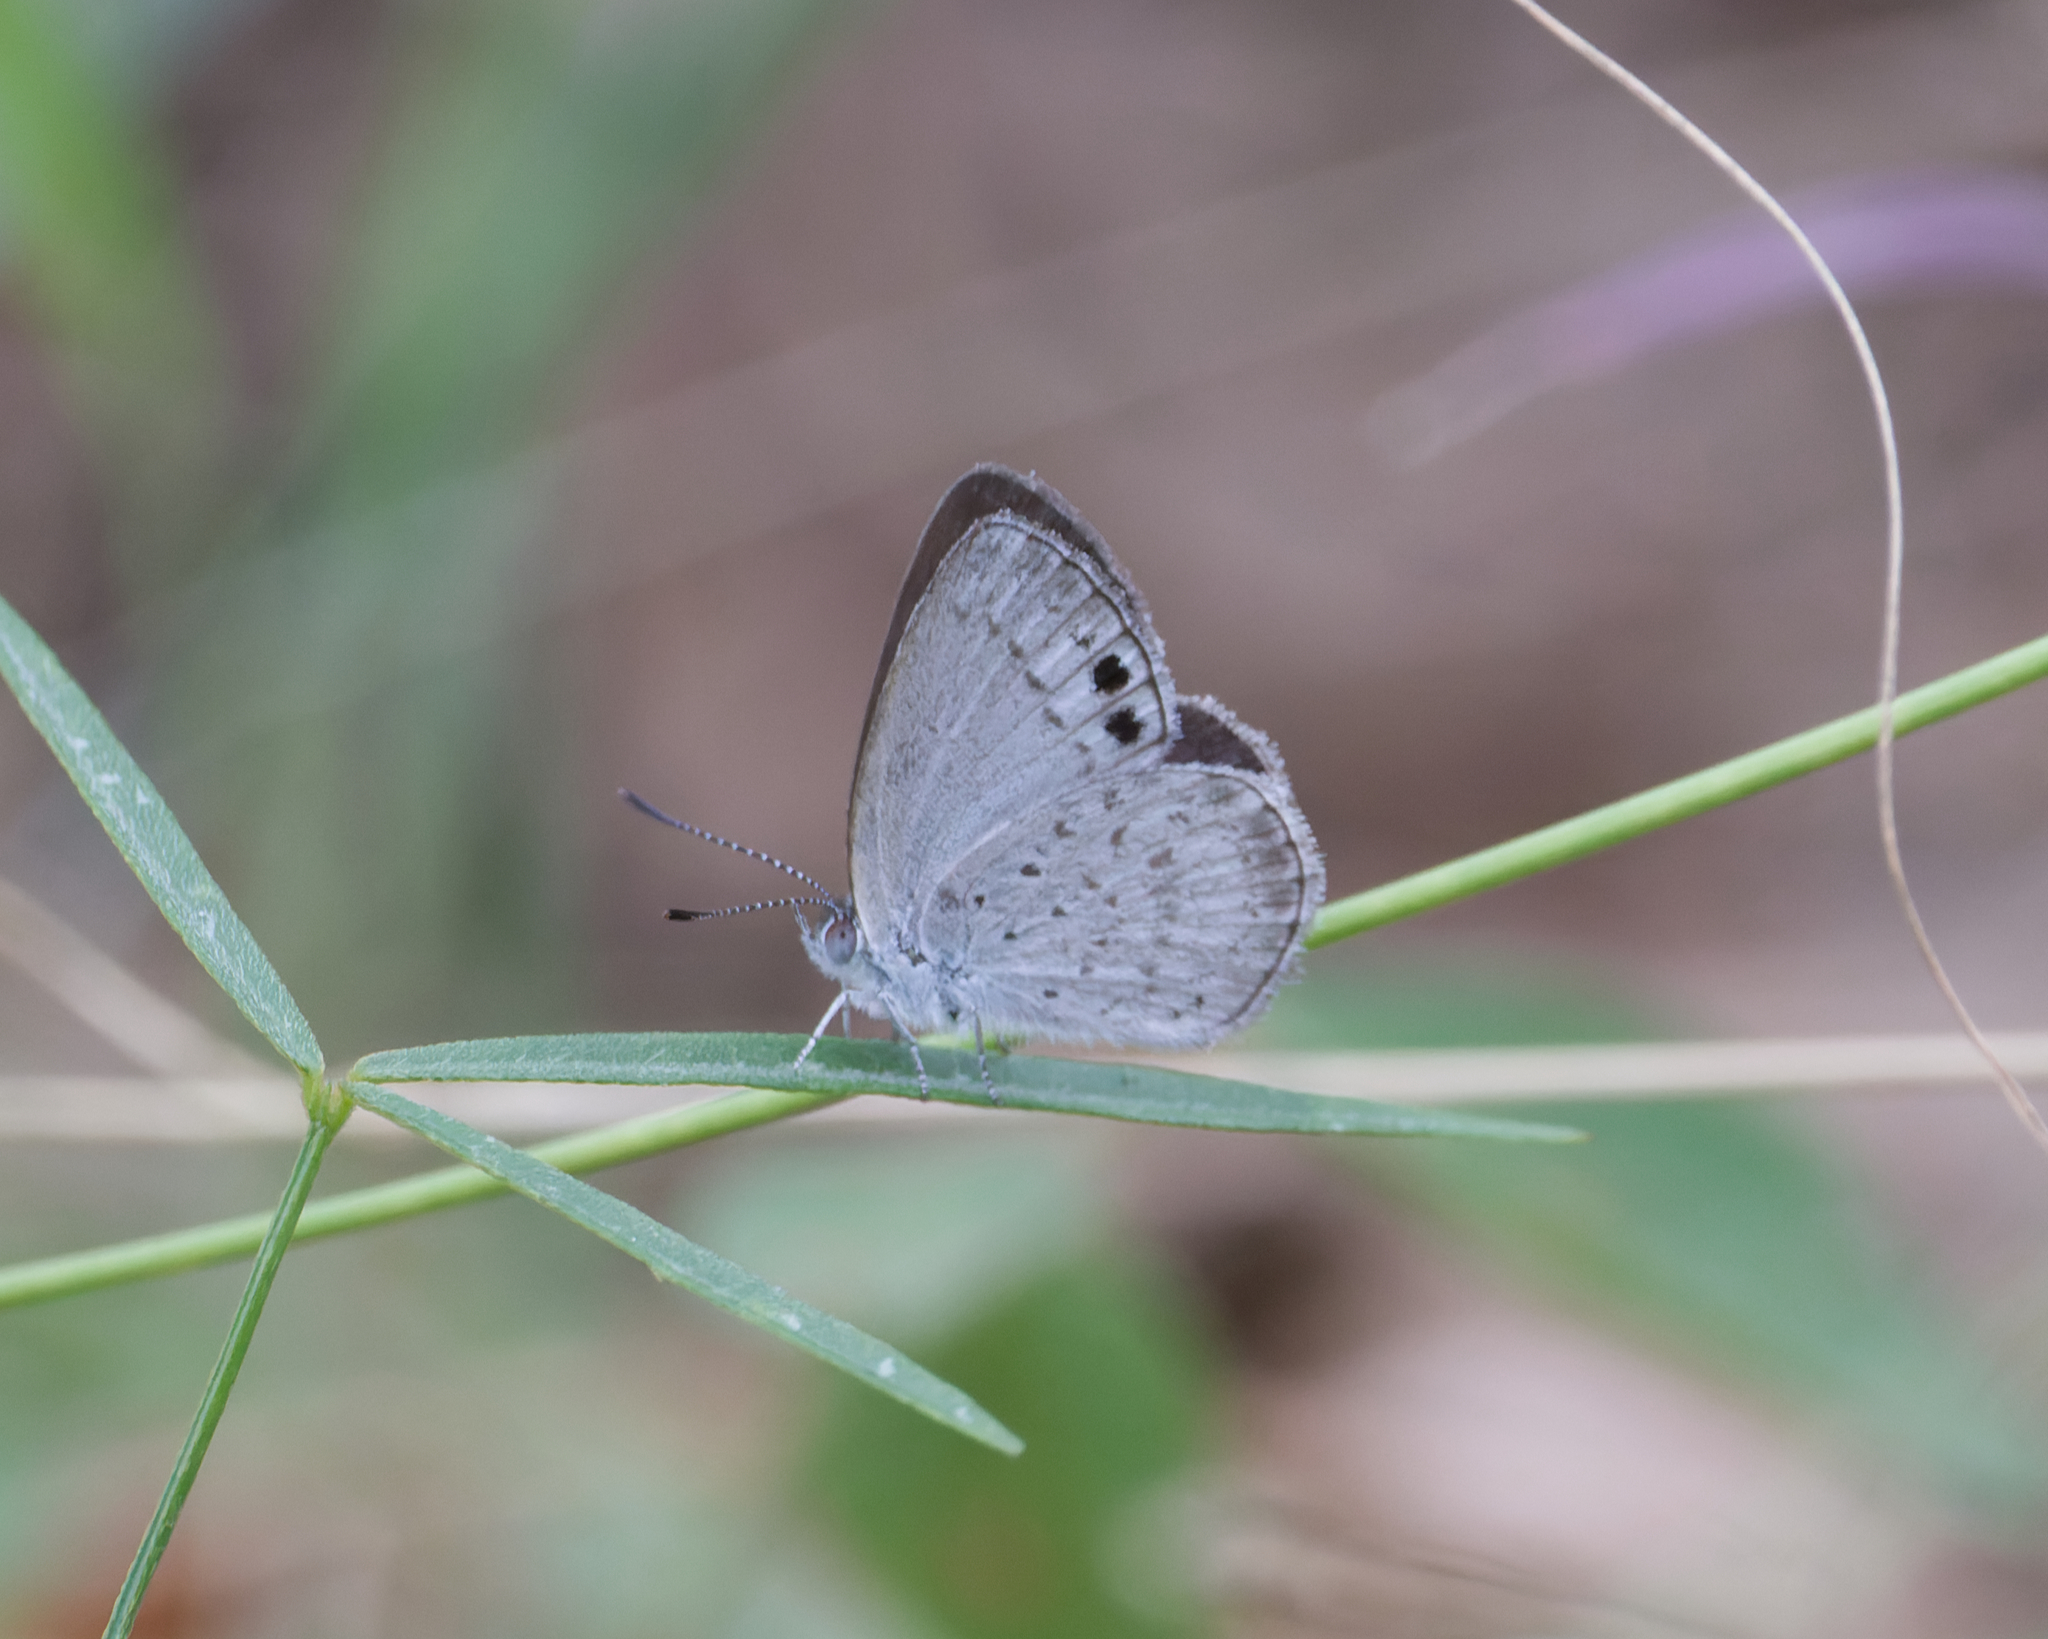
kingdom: Animalia
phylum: Arthropoda
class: Insecta
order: Lepidoptera
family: Lycaenidae
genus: Candalides
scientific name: Candalides
